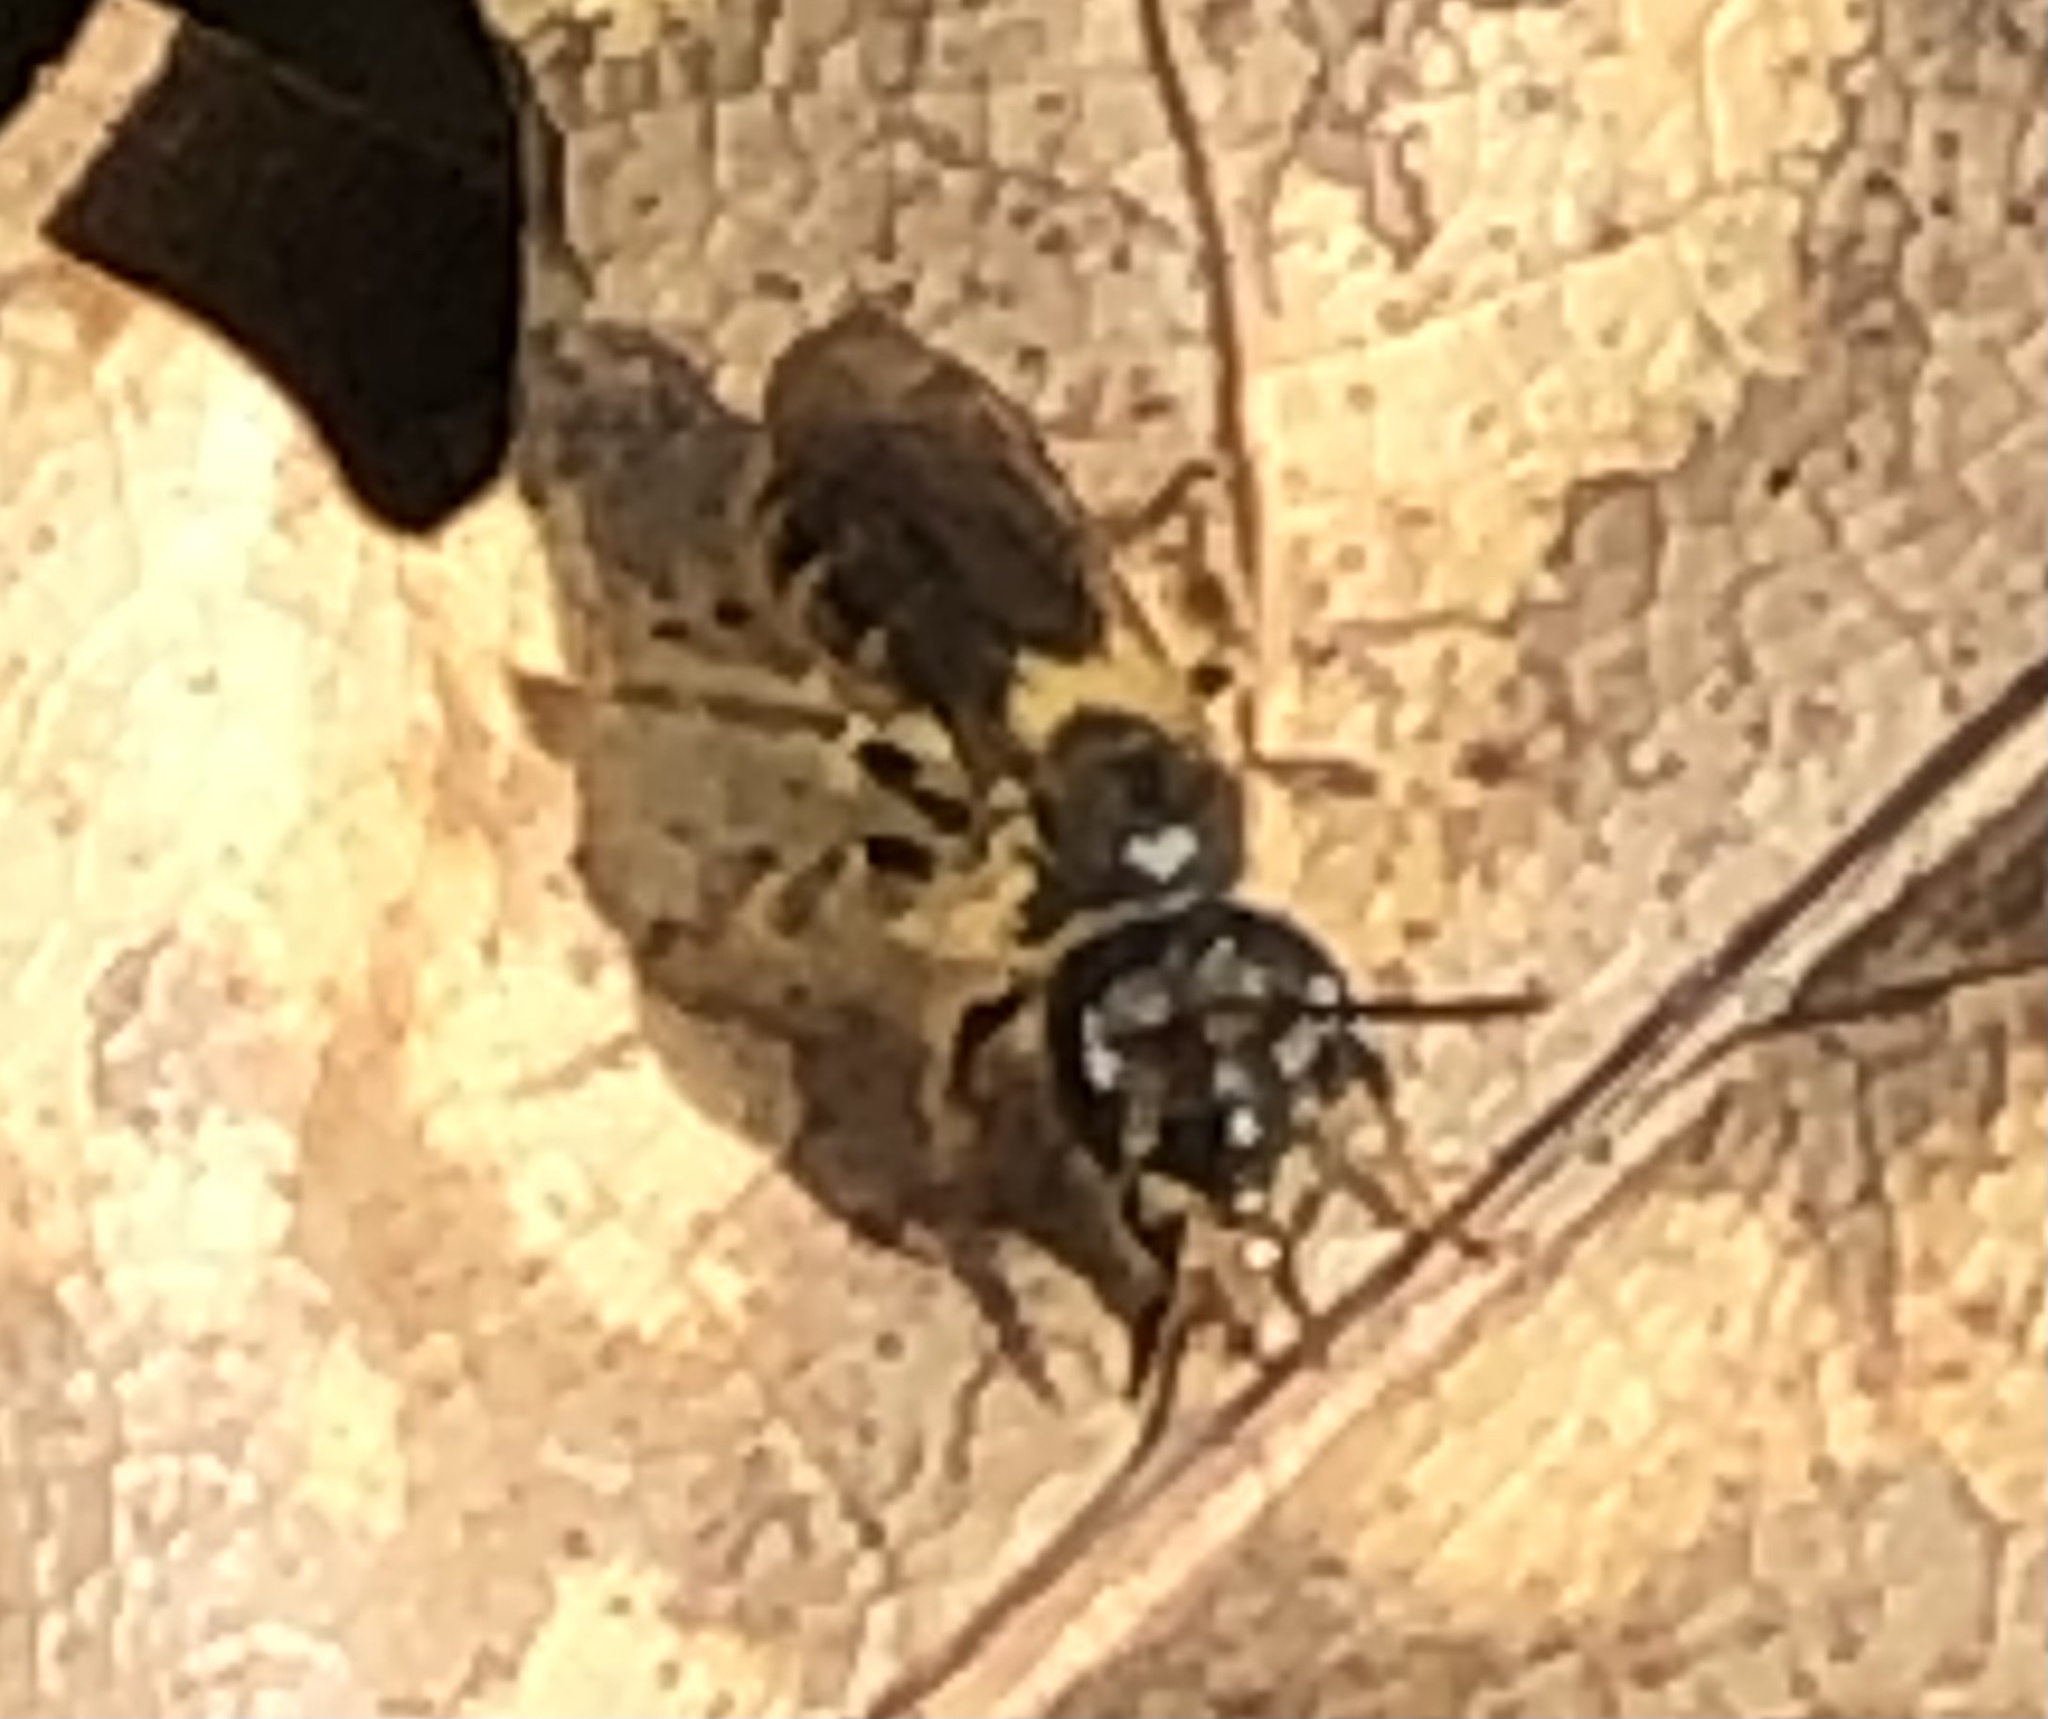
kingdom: Animalia
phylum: Arthropoda
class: Insecta
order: Hymenoptera
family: Andrenidae
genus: Andrena
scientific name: Andrena violae
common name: Violet miner
